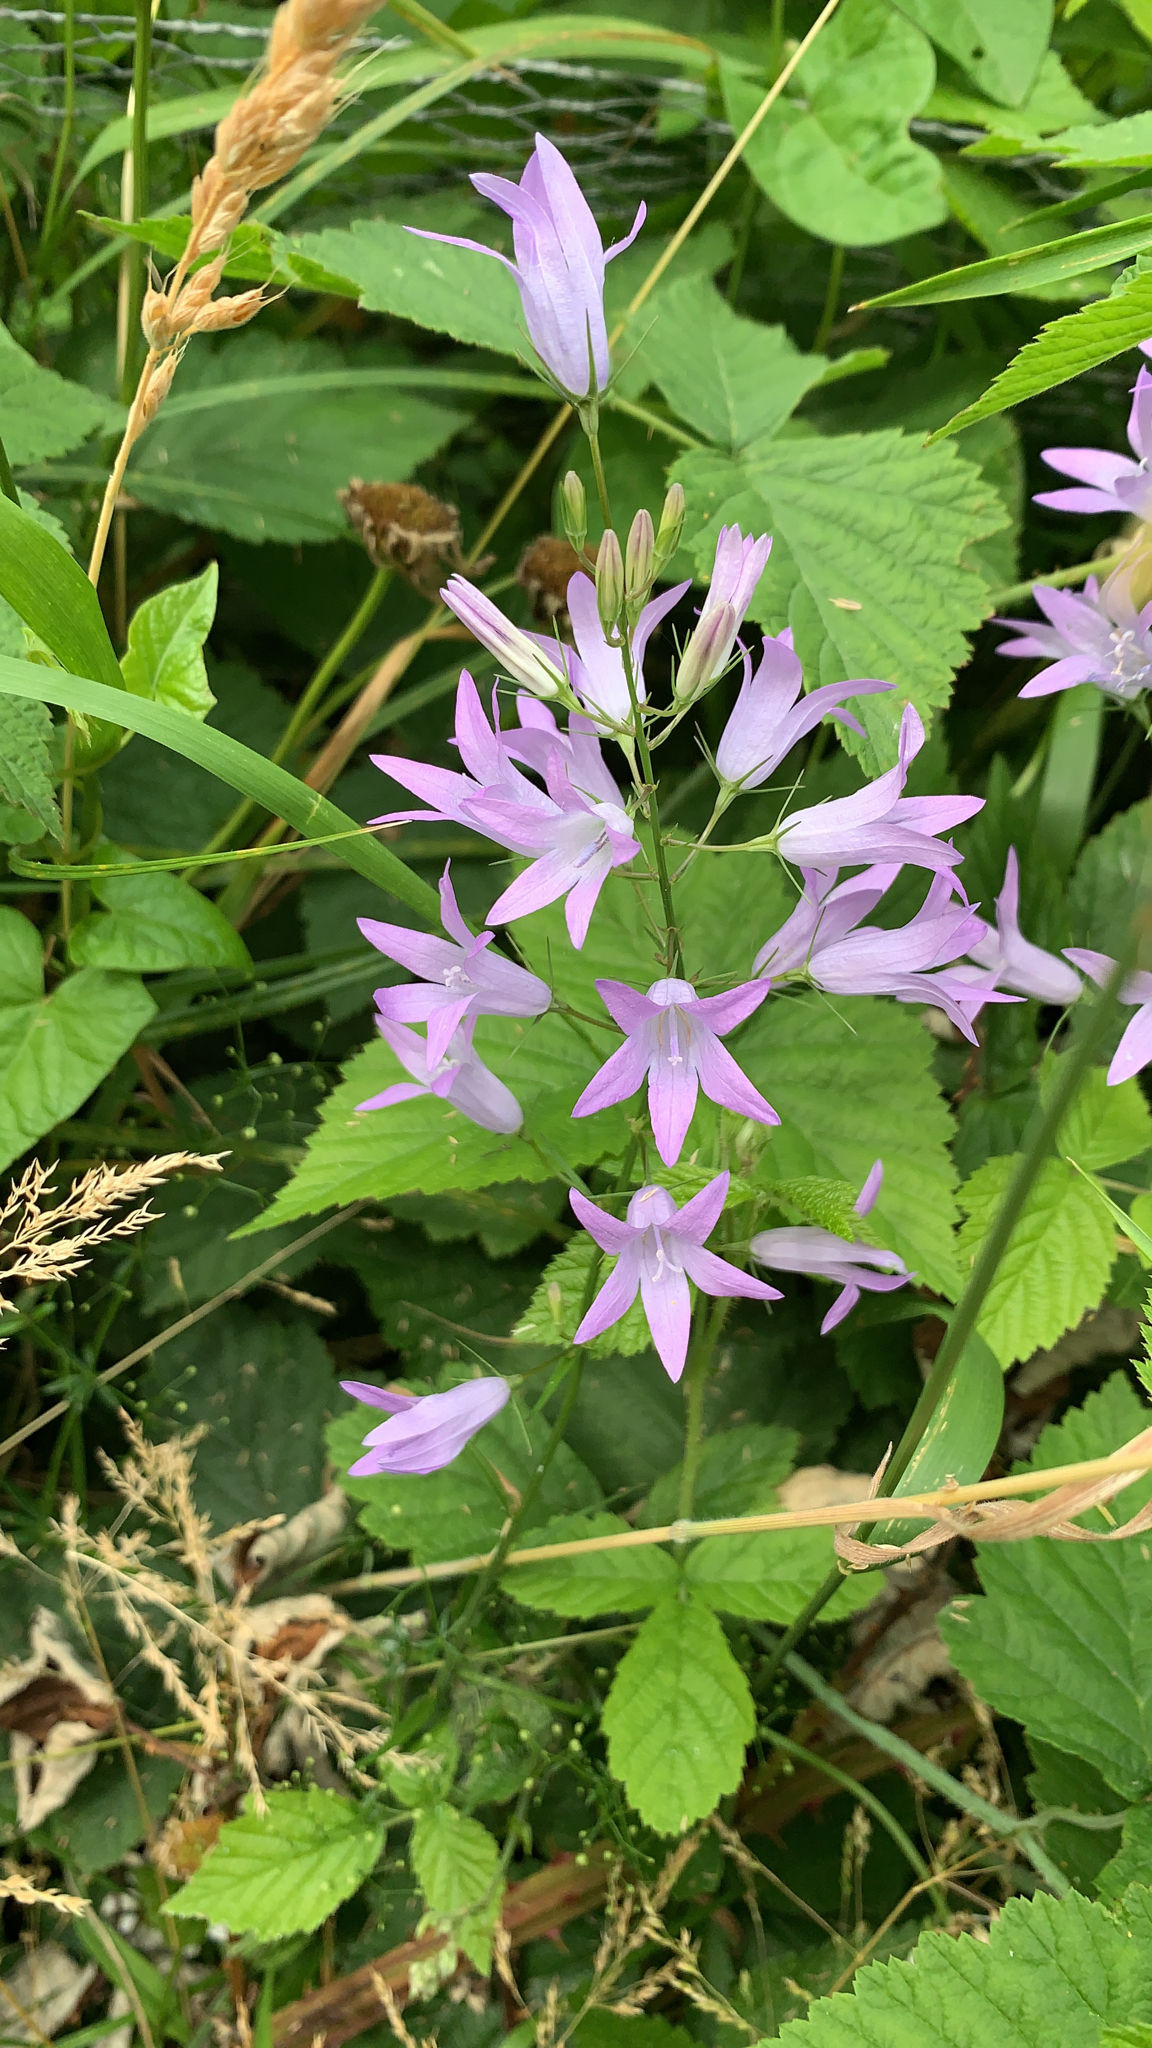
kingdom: Plantae
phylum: Tracheophyta
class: Magnoliopsida
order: Asterales
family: Campanulaceae
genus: Campanula
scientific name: Campanula rapunculus
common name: Rampion bellflower
